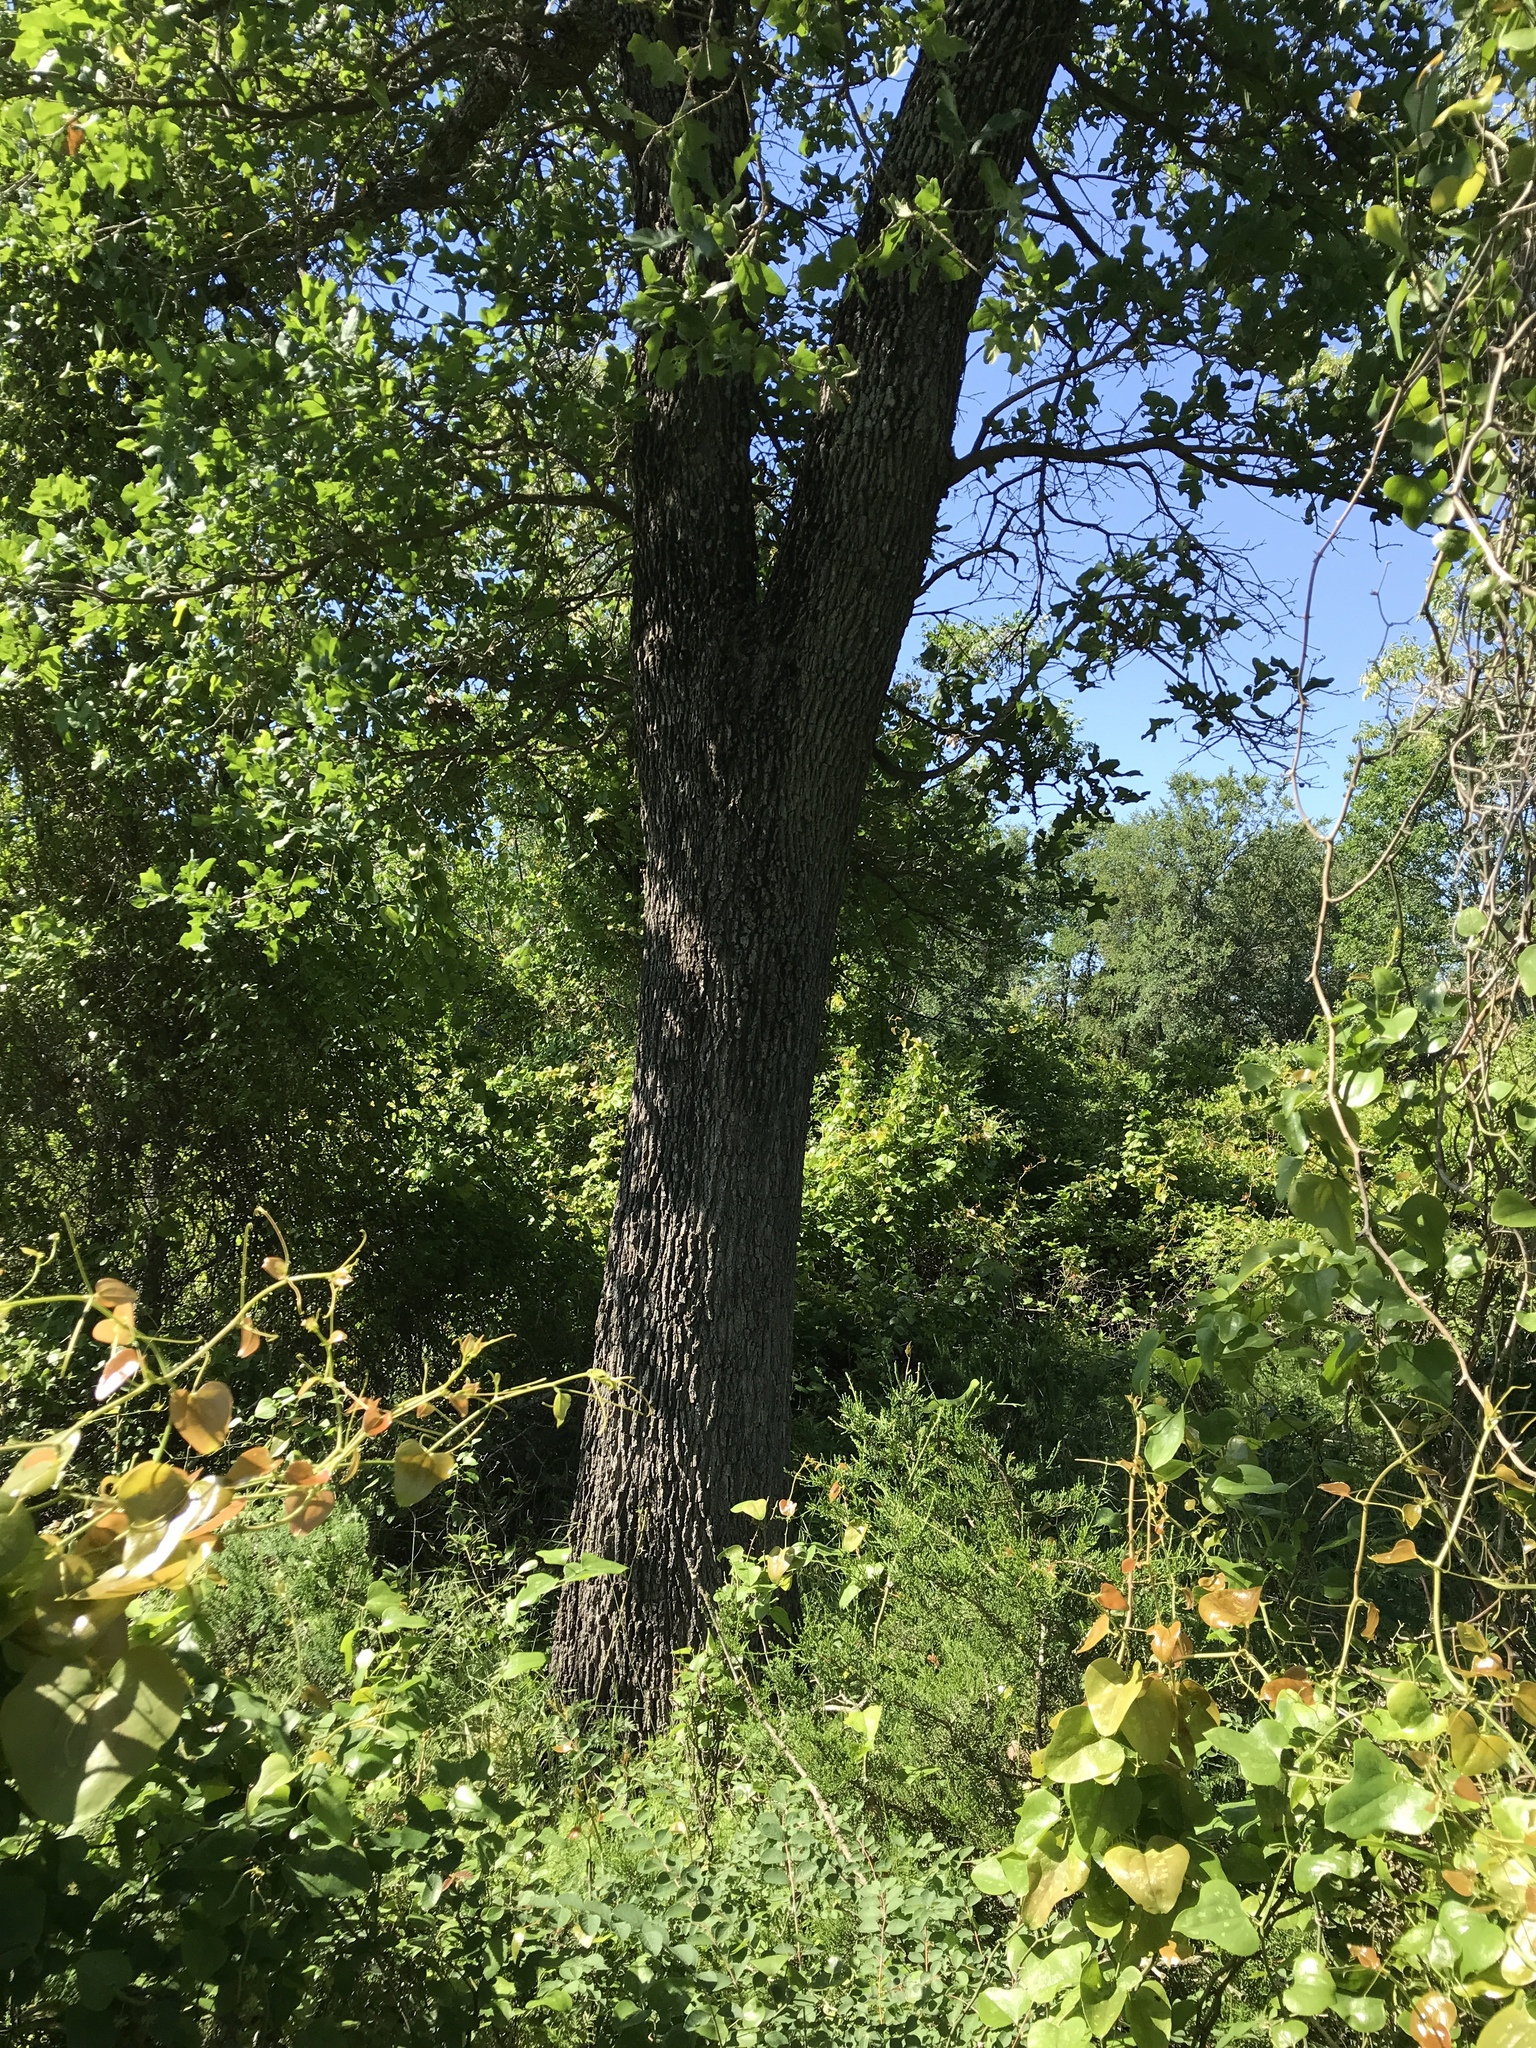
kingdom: Plantae
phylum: Tracheophyta
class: Magnoliopsida
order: Fagales
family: Fagaceae
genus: Quercus
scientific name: Quercus stellata
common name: Post oak
